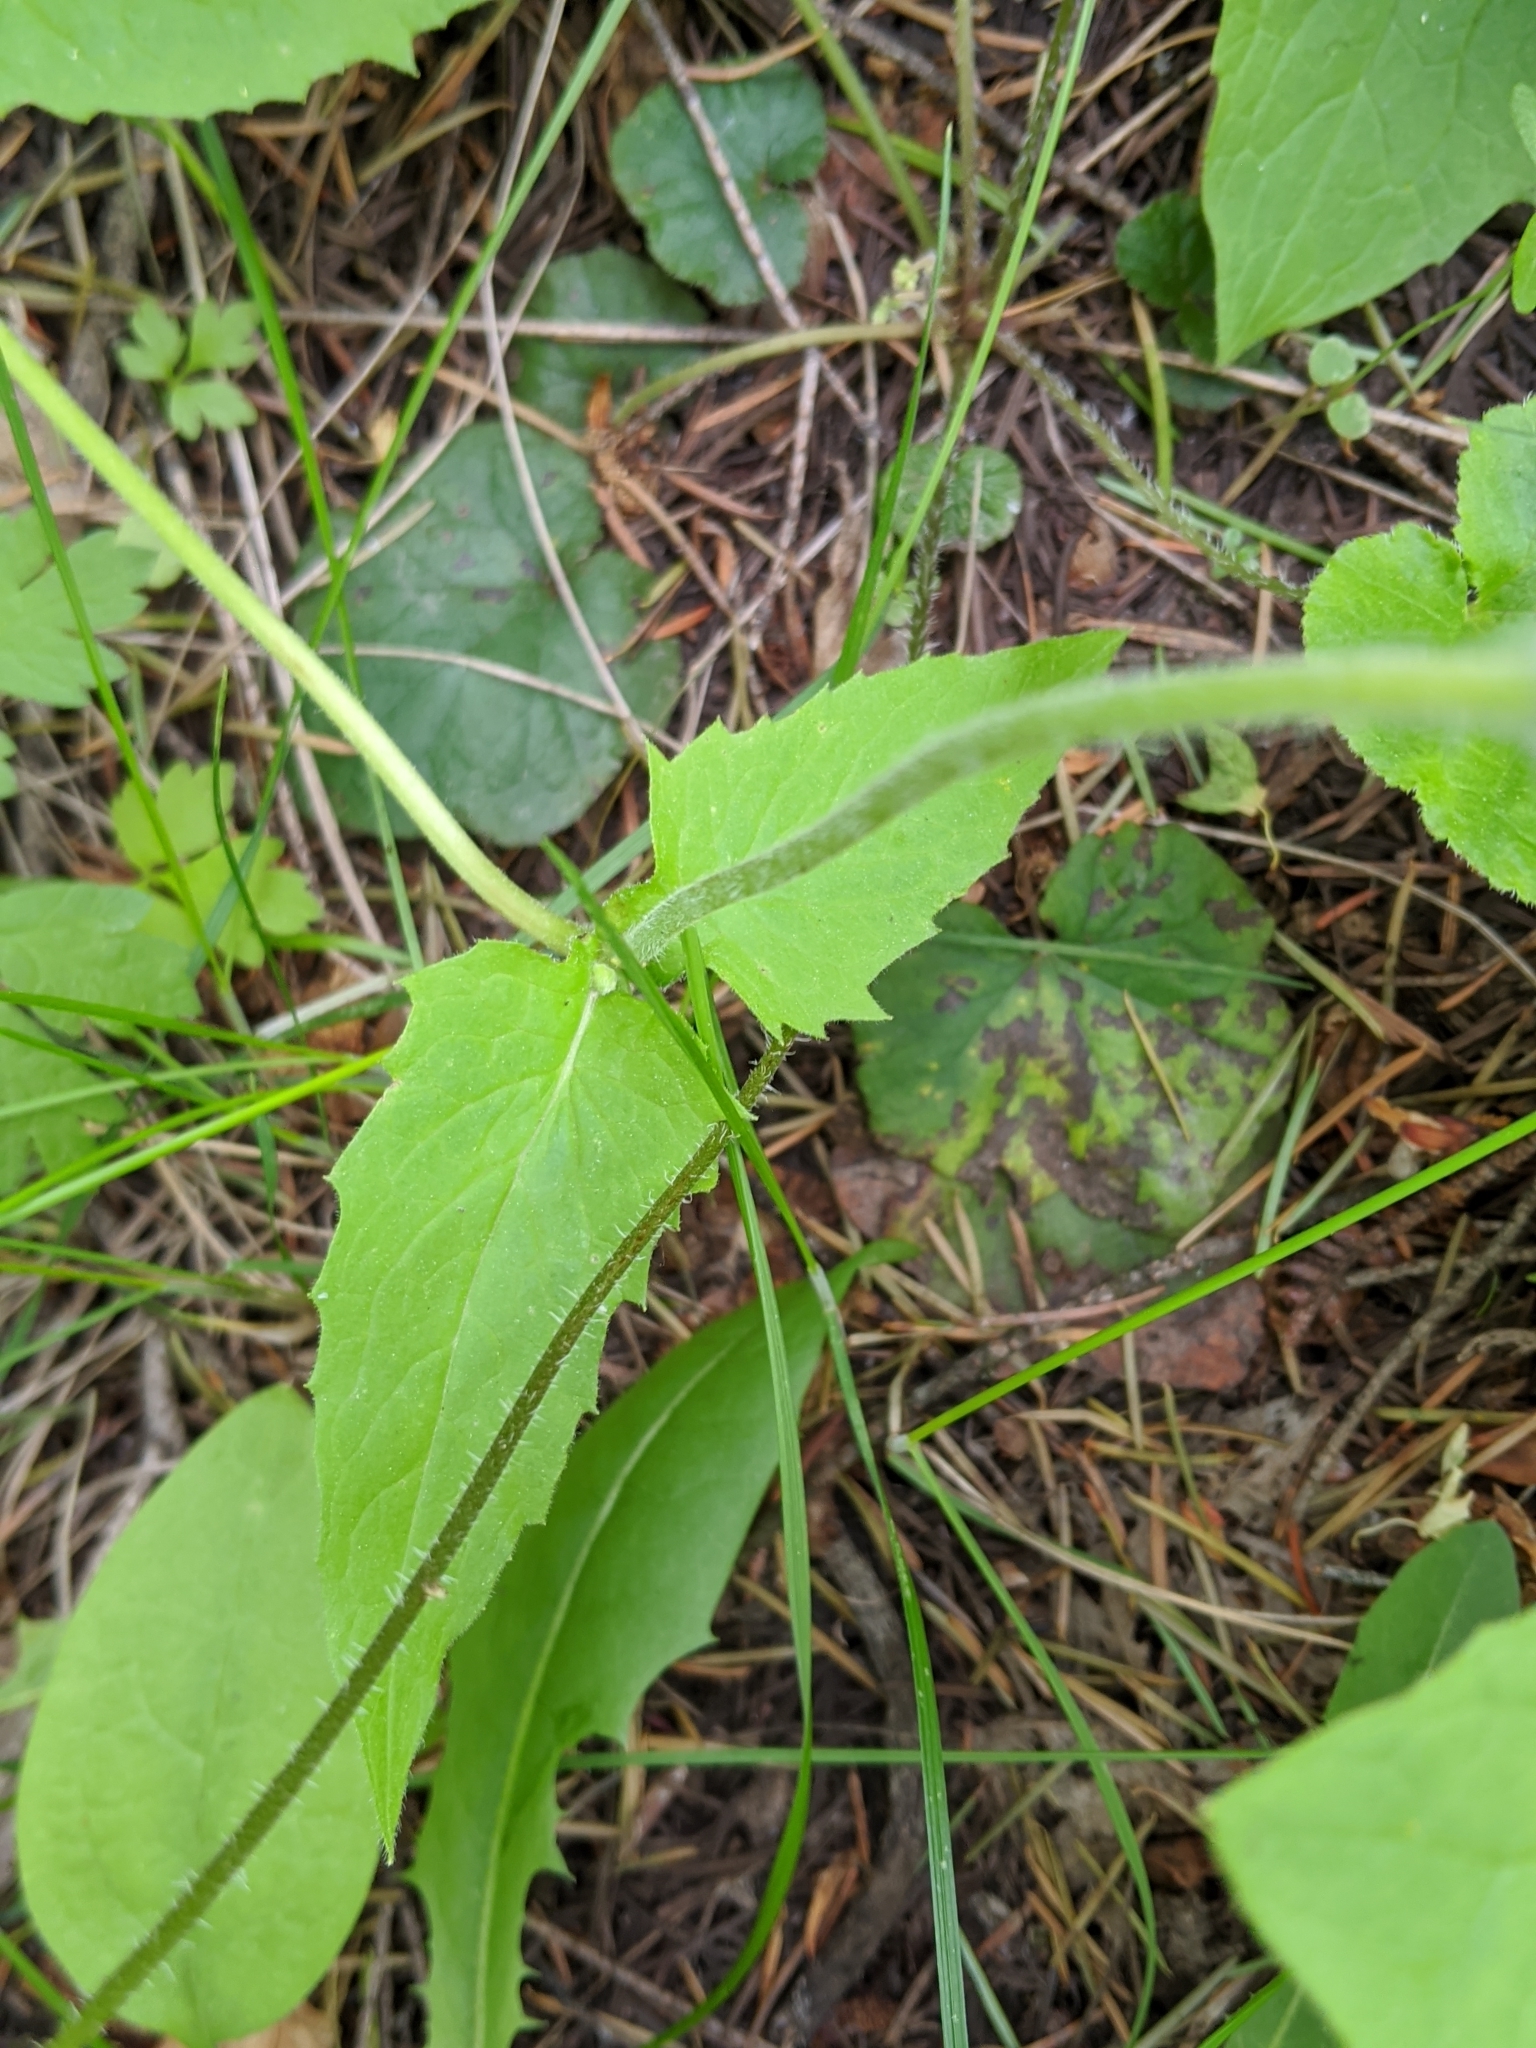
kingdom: Plantae
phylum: Tracheophyta
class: Magnoliopsida
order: Asterales
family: Asteraceae
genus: Arnica
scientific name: Arnica cordifolia
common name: Heart-leaf arnica
